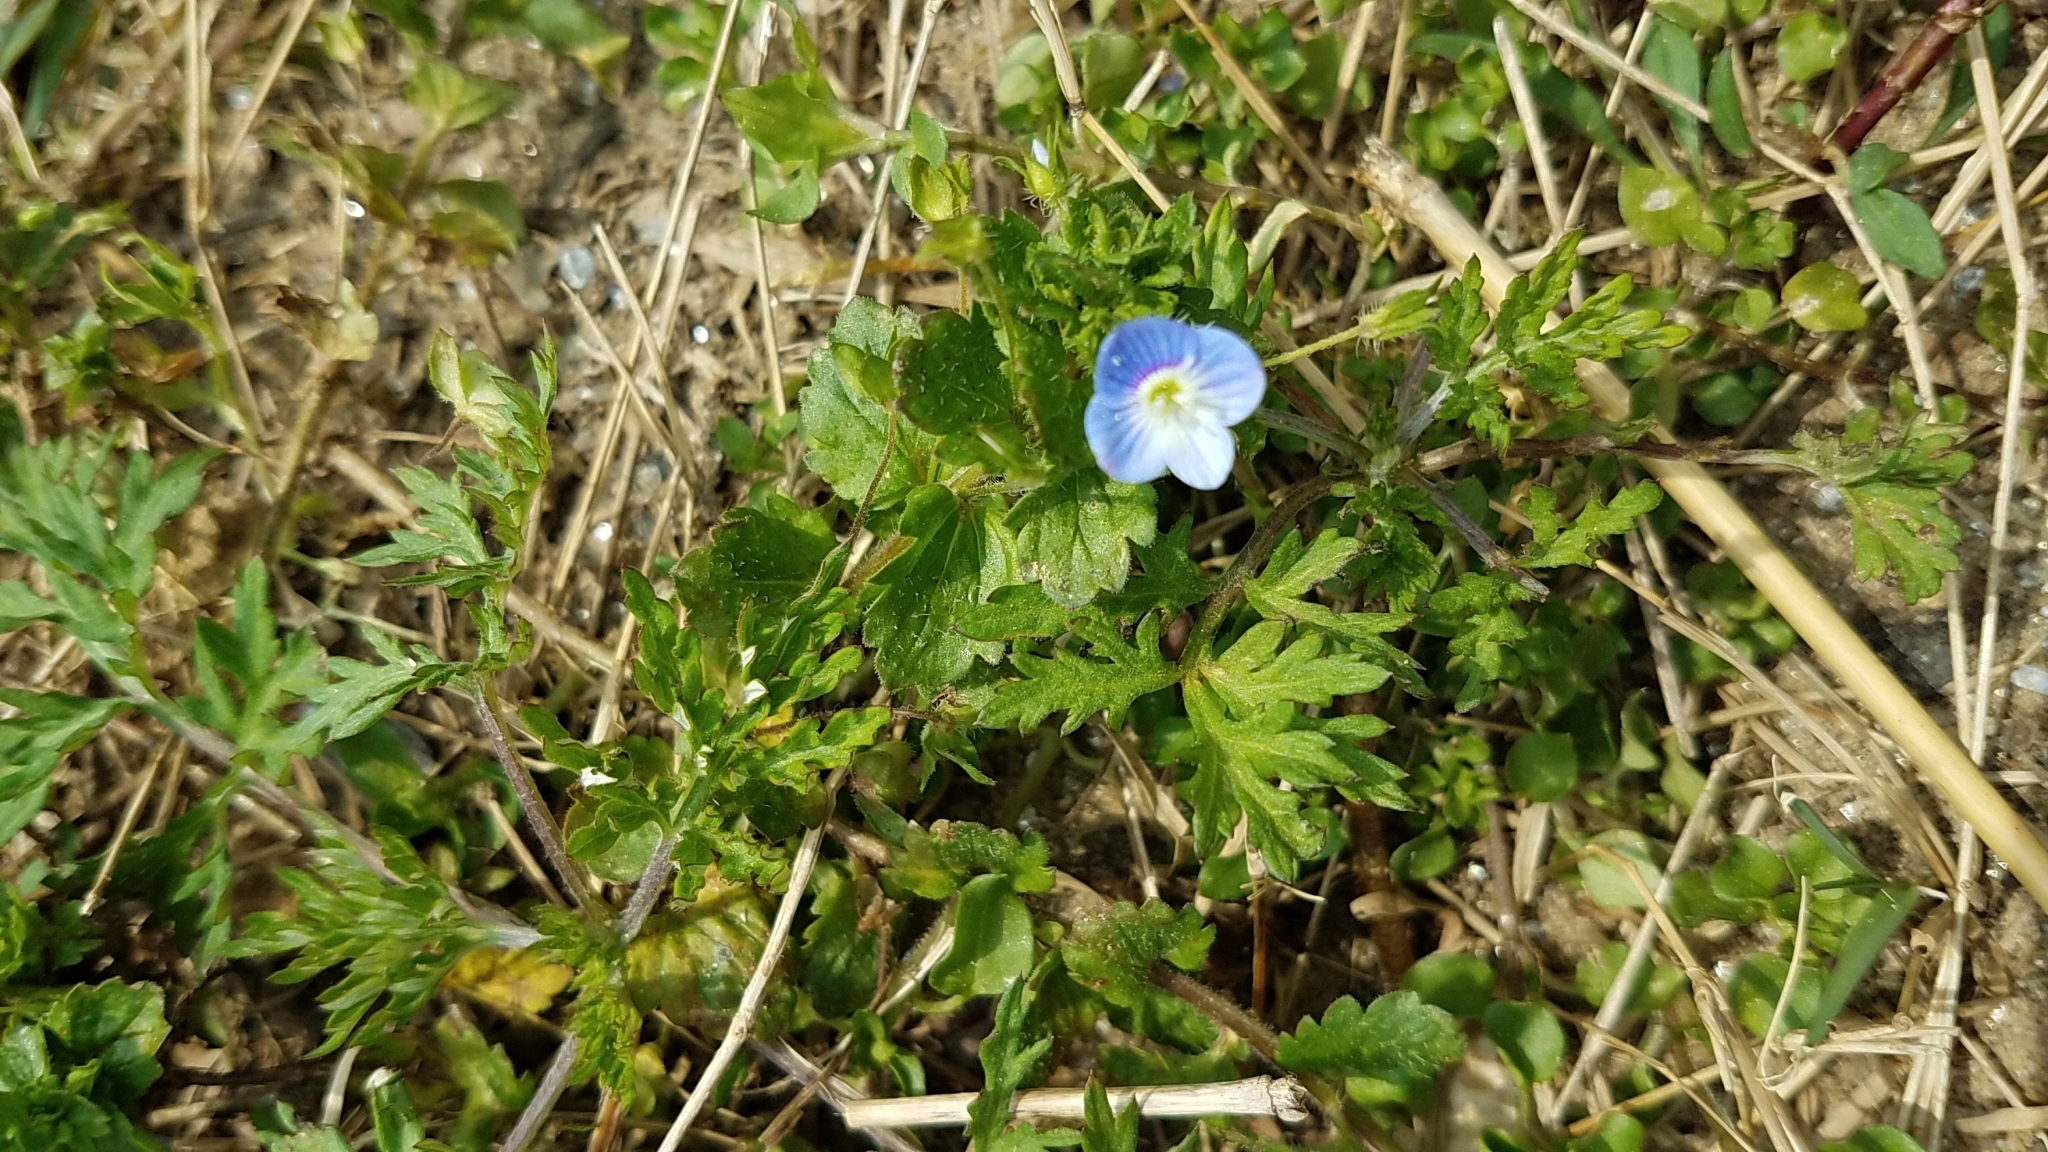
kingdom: Plantae
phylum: Tracheophyta
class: Magnoliopsida
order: Lamiales
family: Plantaginaceae
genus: Veronica
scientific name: Veronica persica
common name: Common field-speedwell
